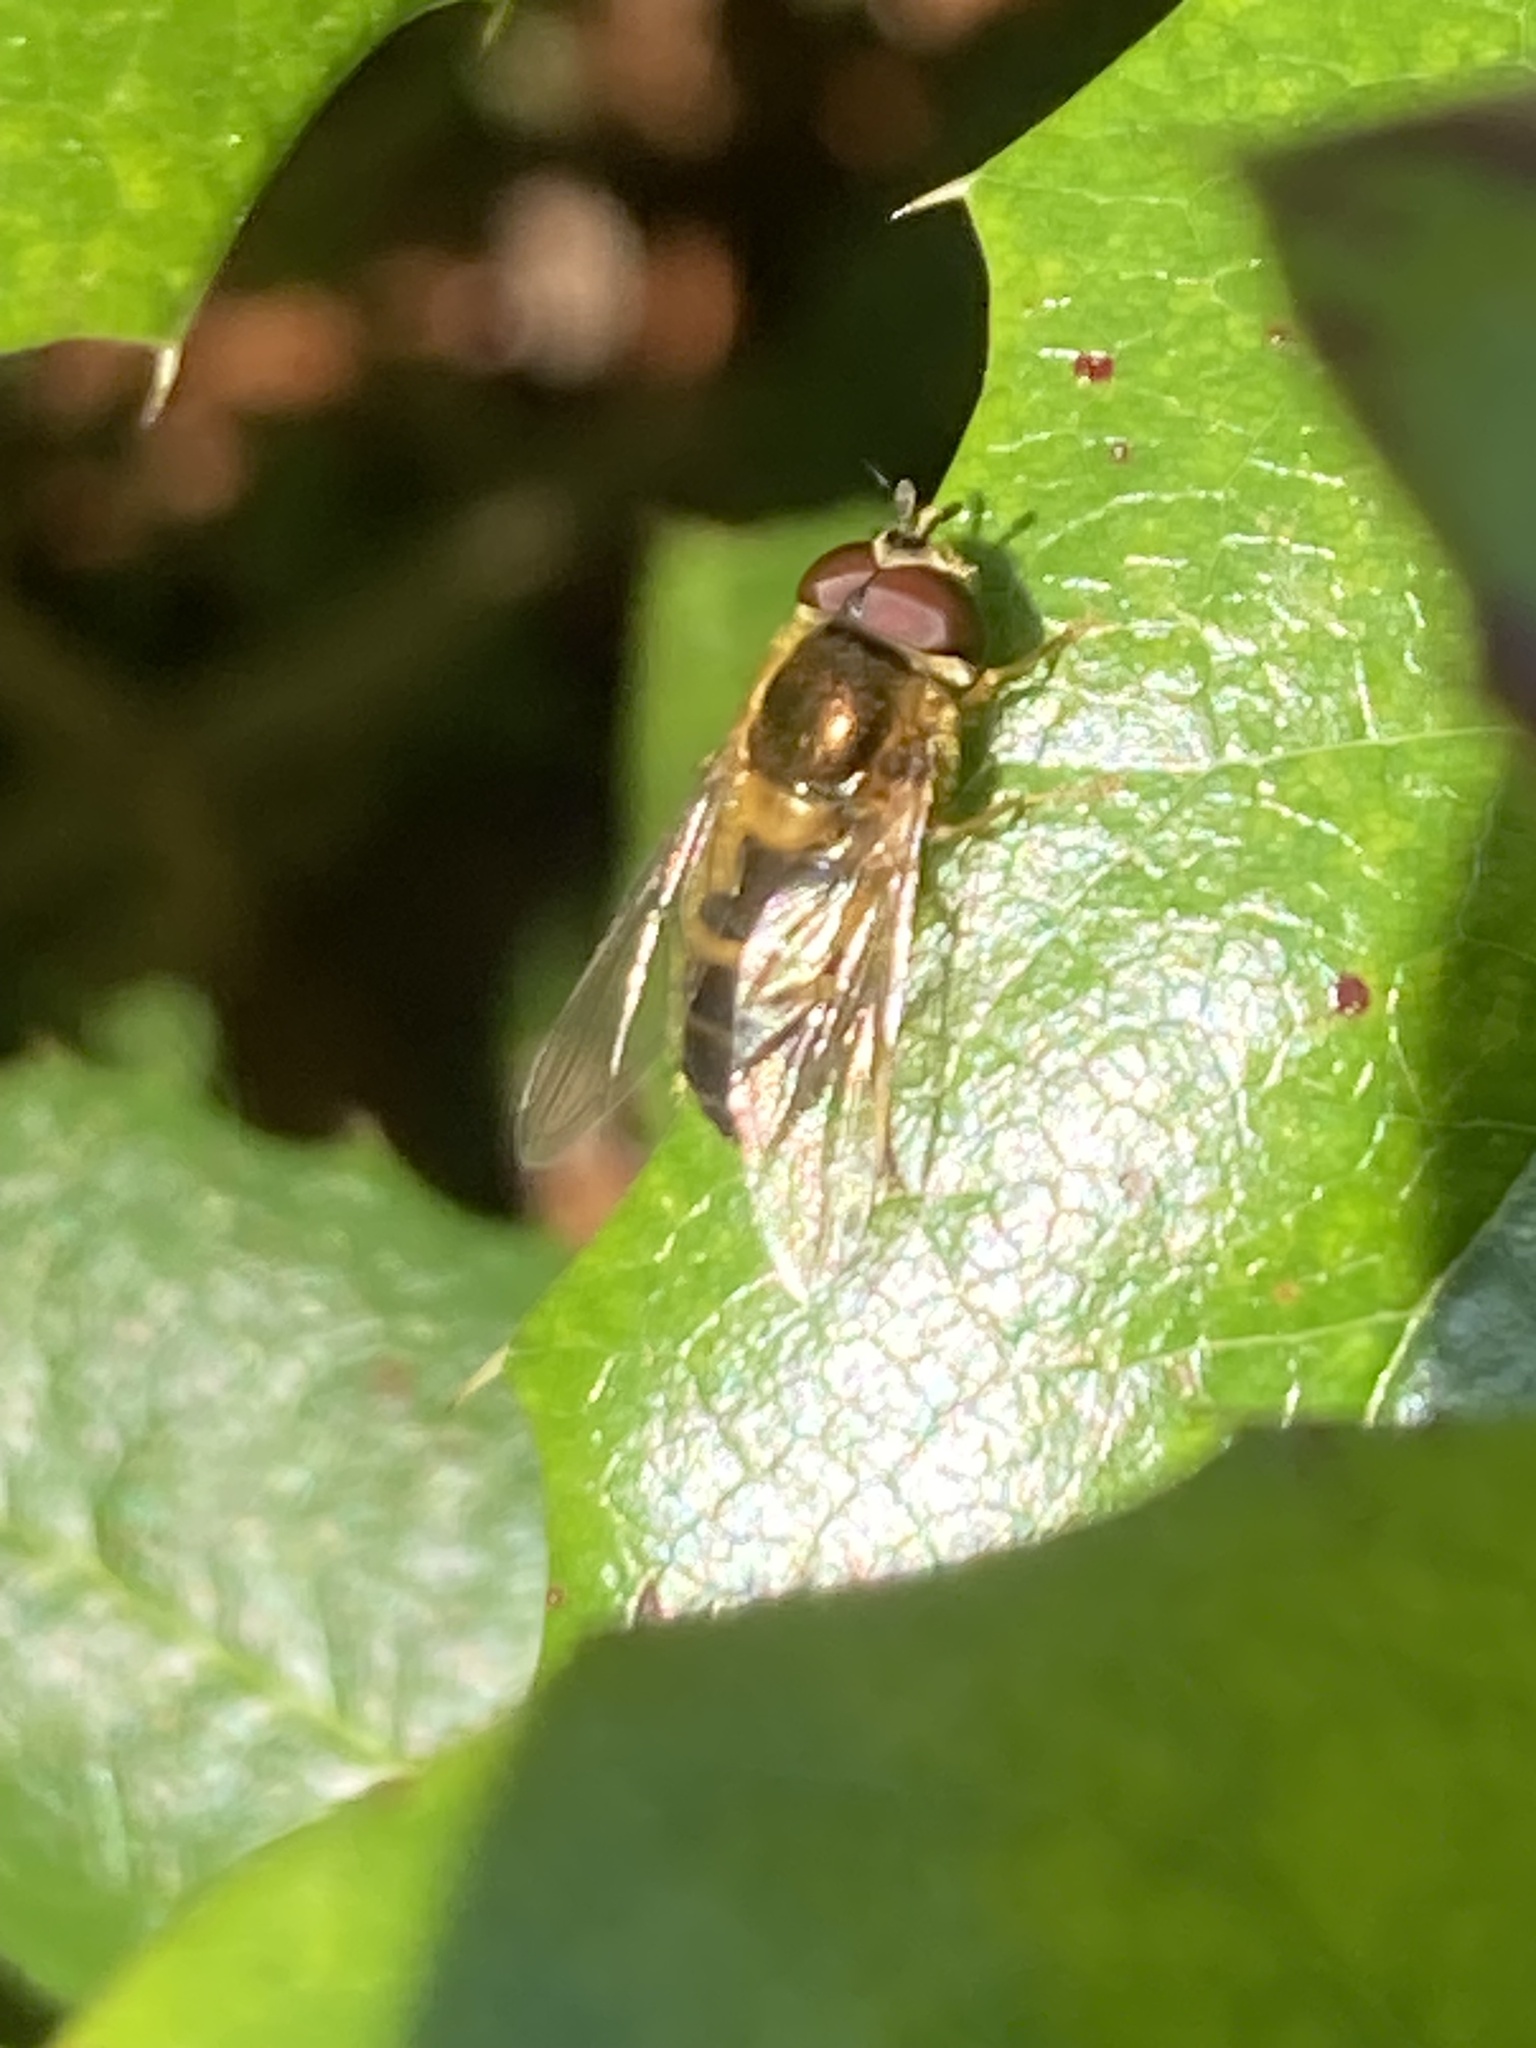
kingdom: Animalia
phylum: Arthropoda
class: Insecta
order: Diptera
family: Syrphidae
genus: Epistrophe
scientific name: Epistrophe eligans
